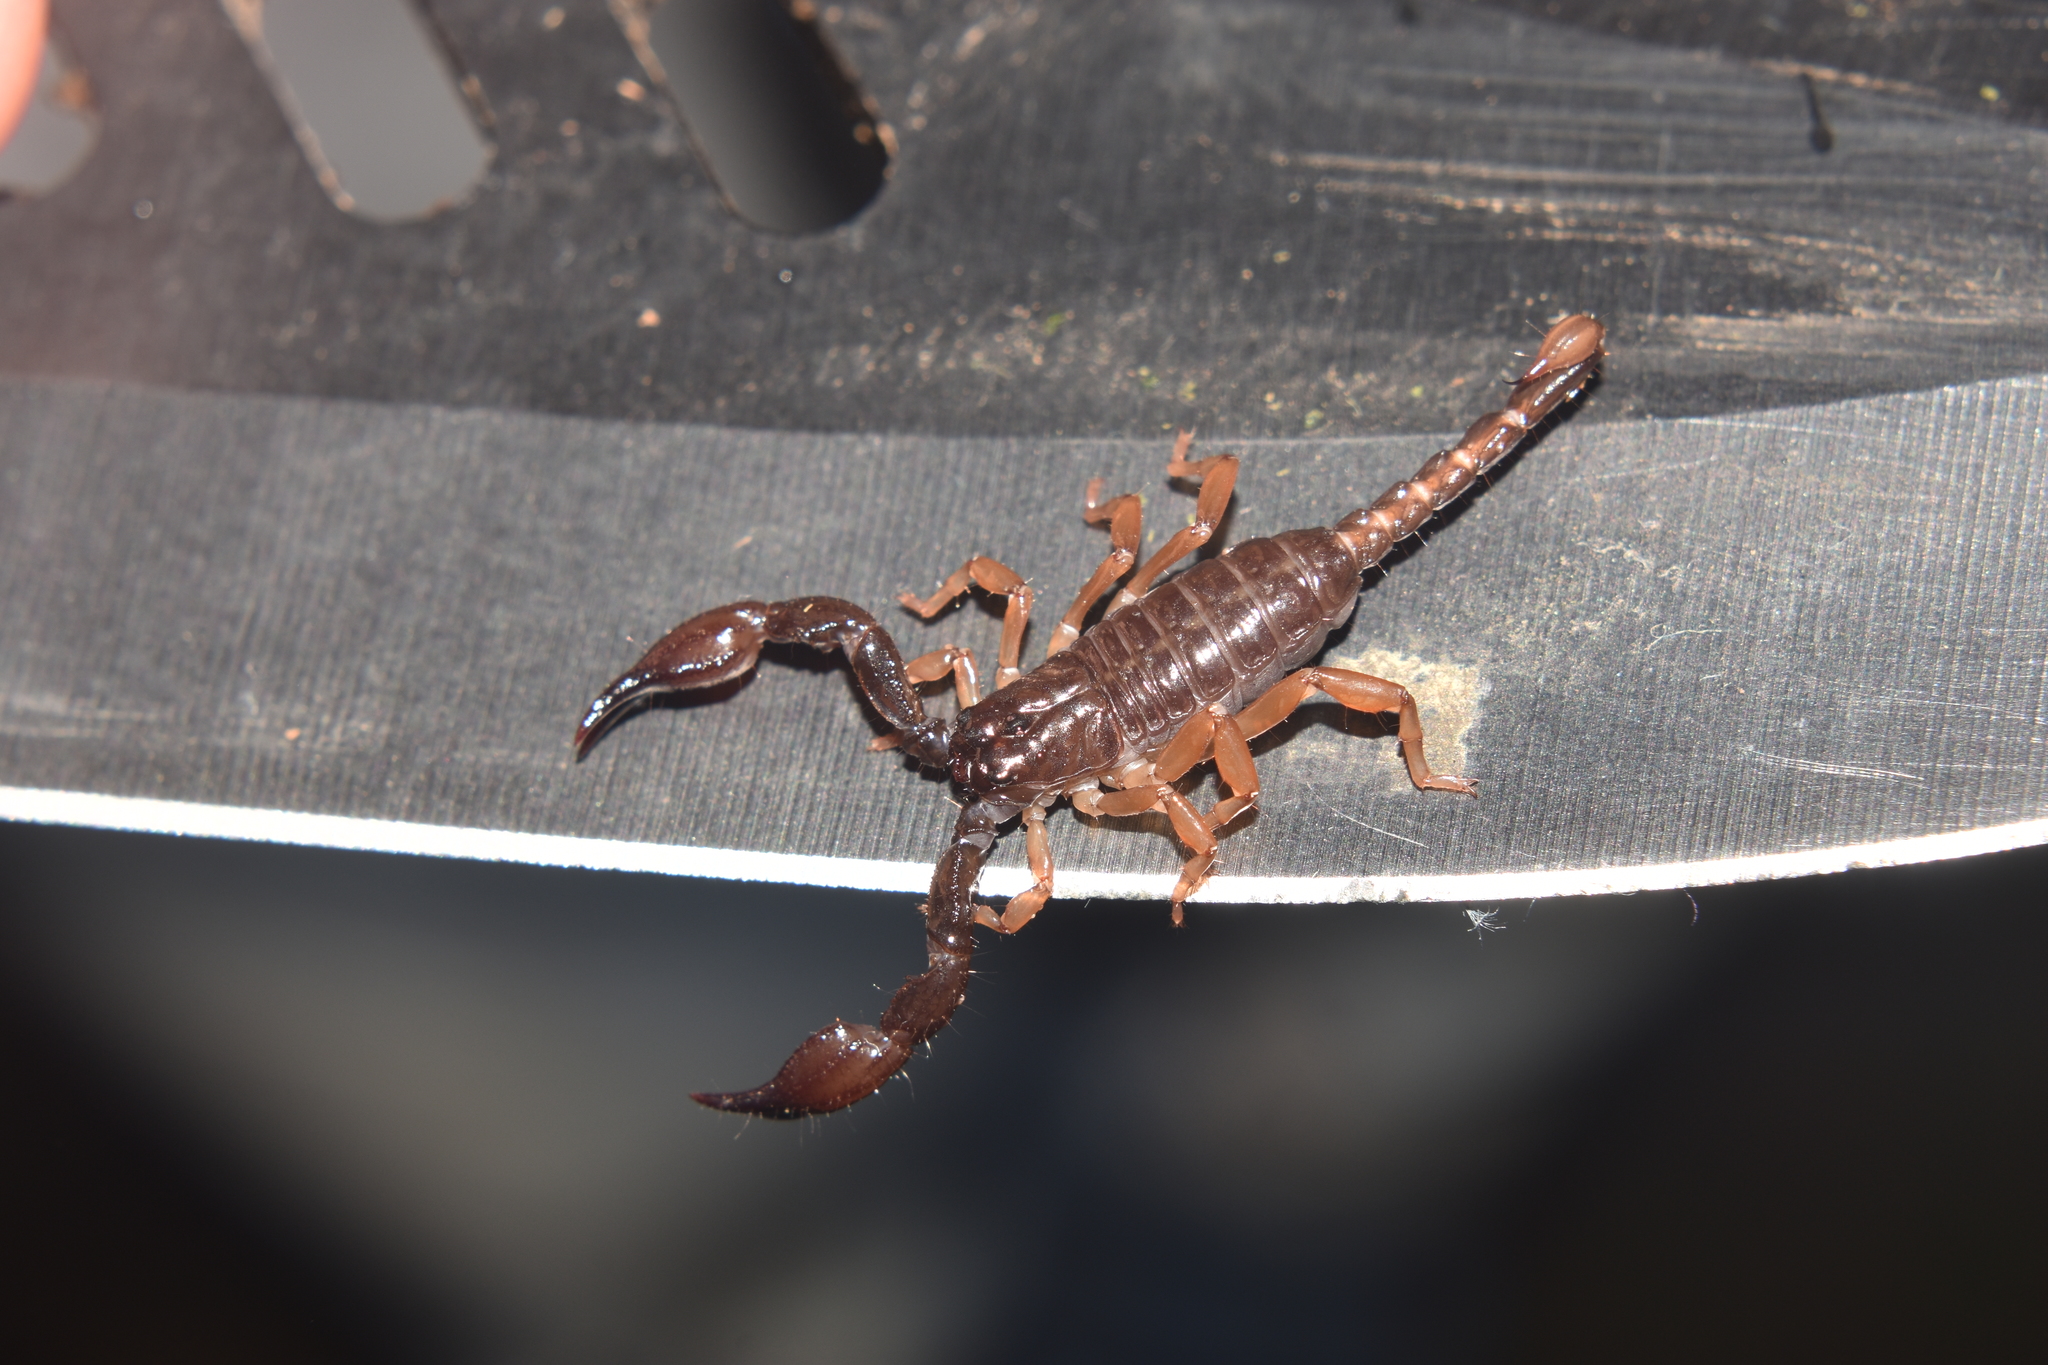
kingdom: Animalia
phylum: Arthropoda
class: Arachnida
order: Scorpiones
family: Chactidae
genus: Chactas
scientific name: Chactas
